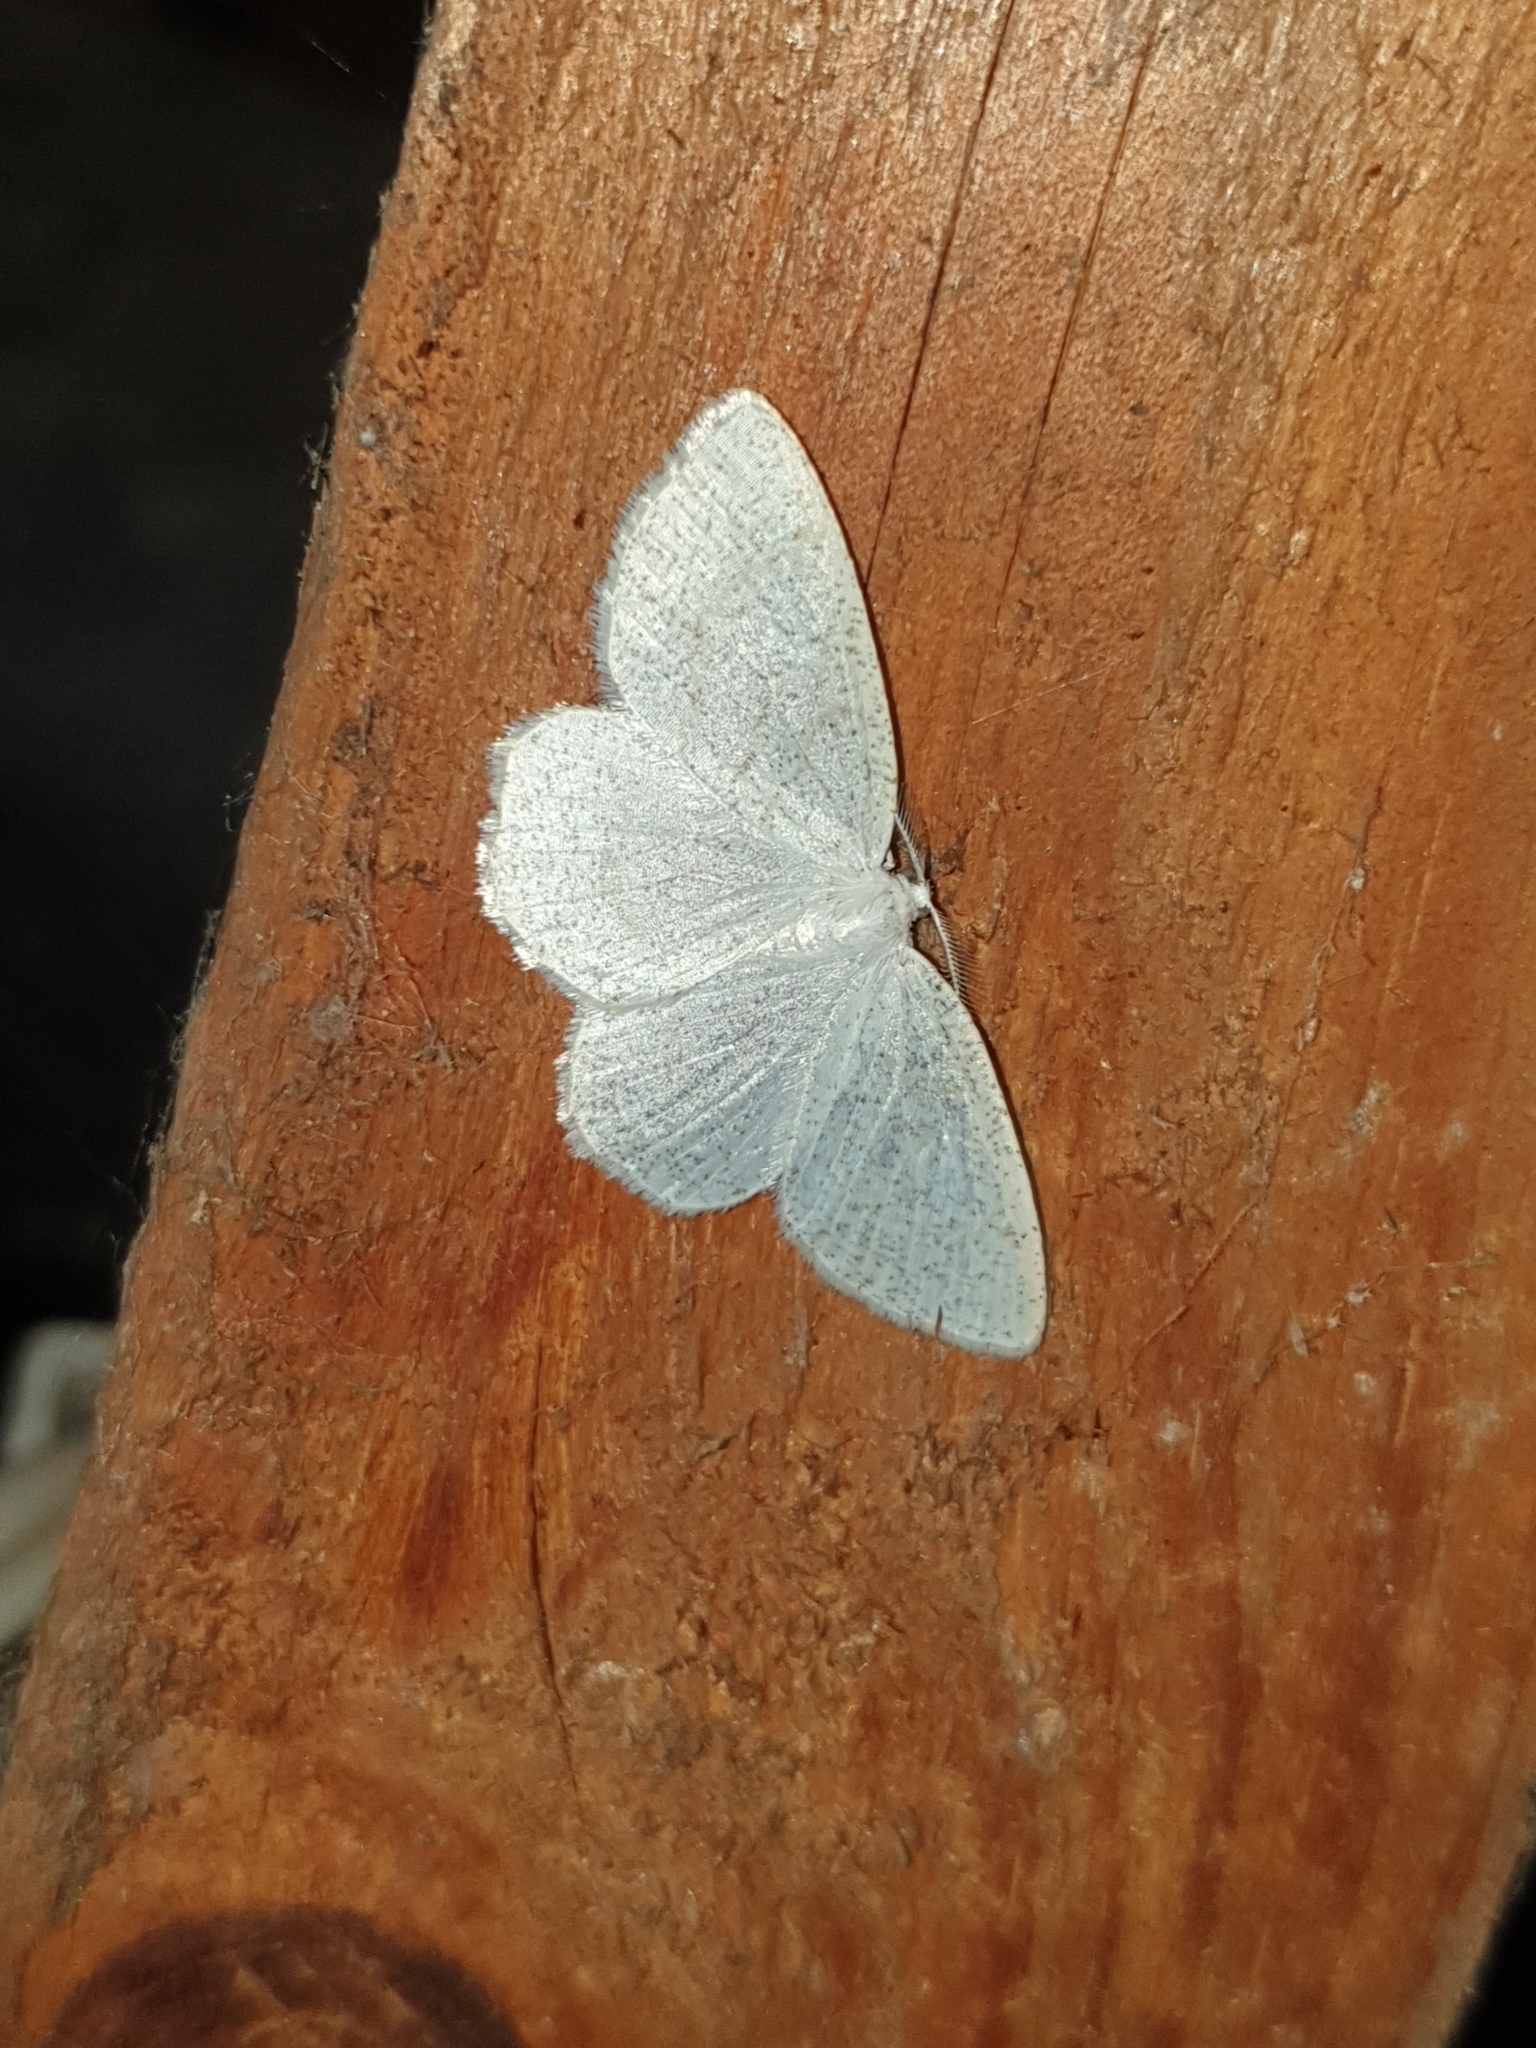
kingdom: Animalia
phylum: Arthropoda
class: Insecta
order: Lepidoptera
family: Geometridae
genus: Cabera
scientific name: Cabera exanthemata
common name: Common wave
